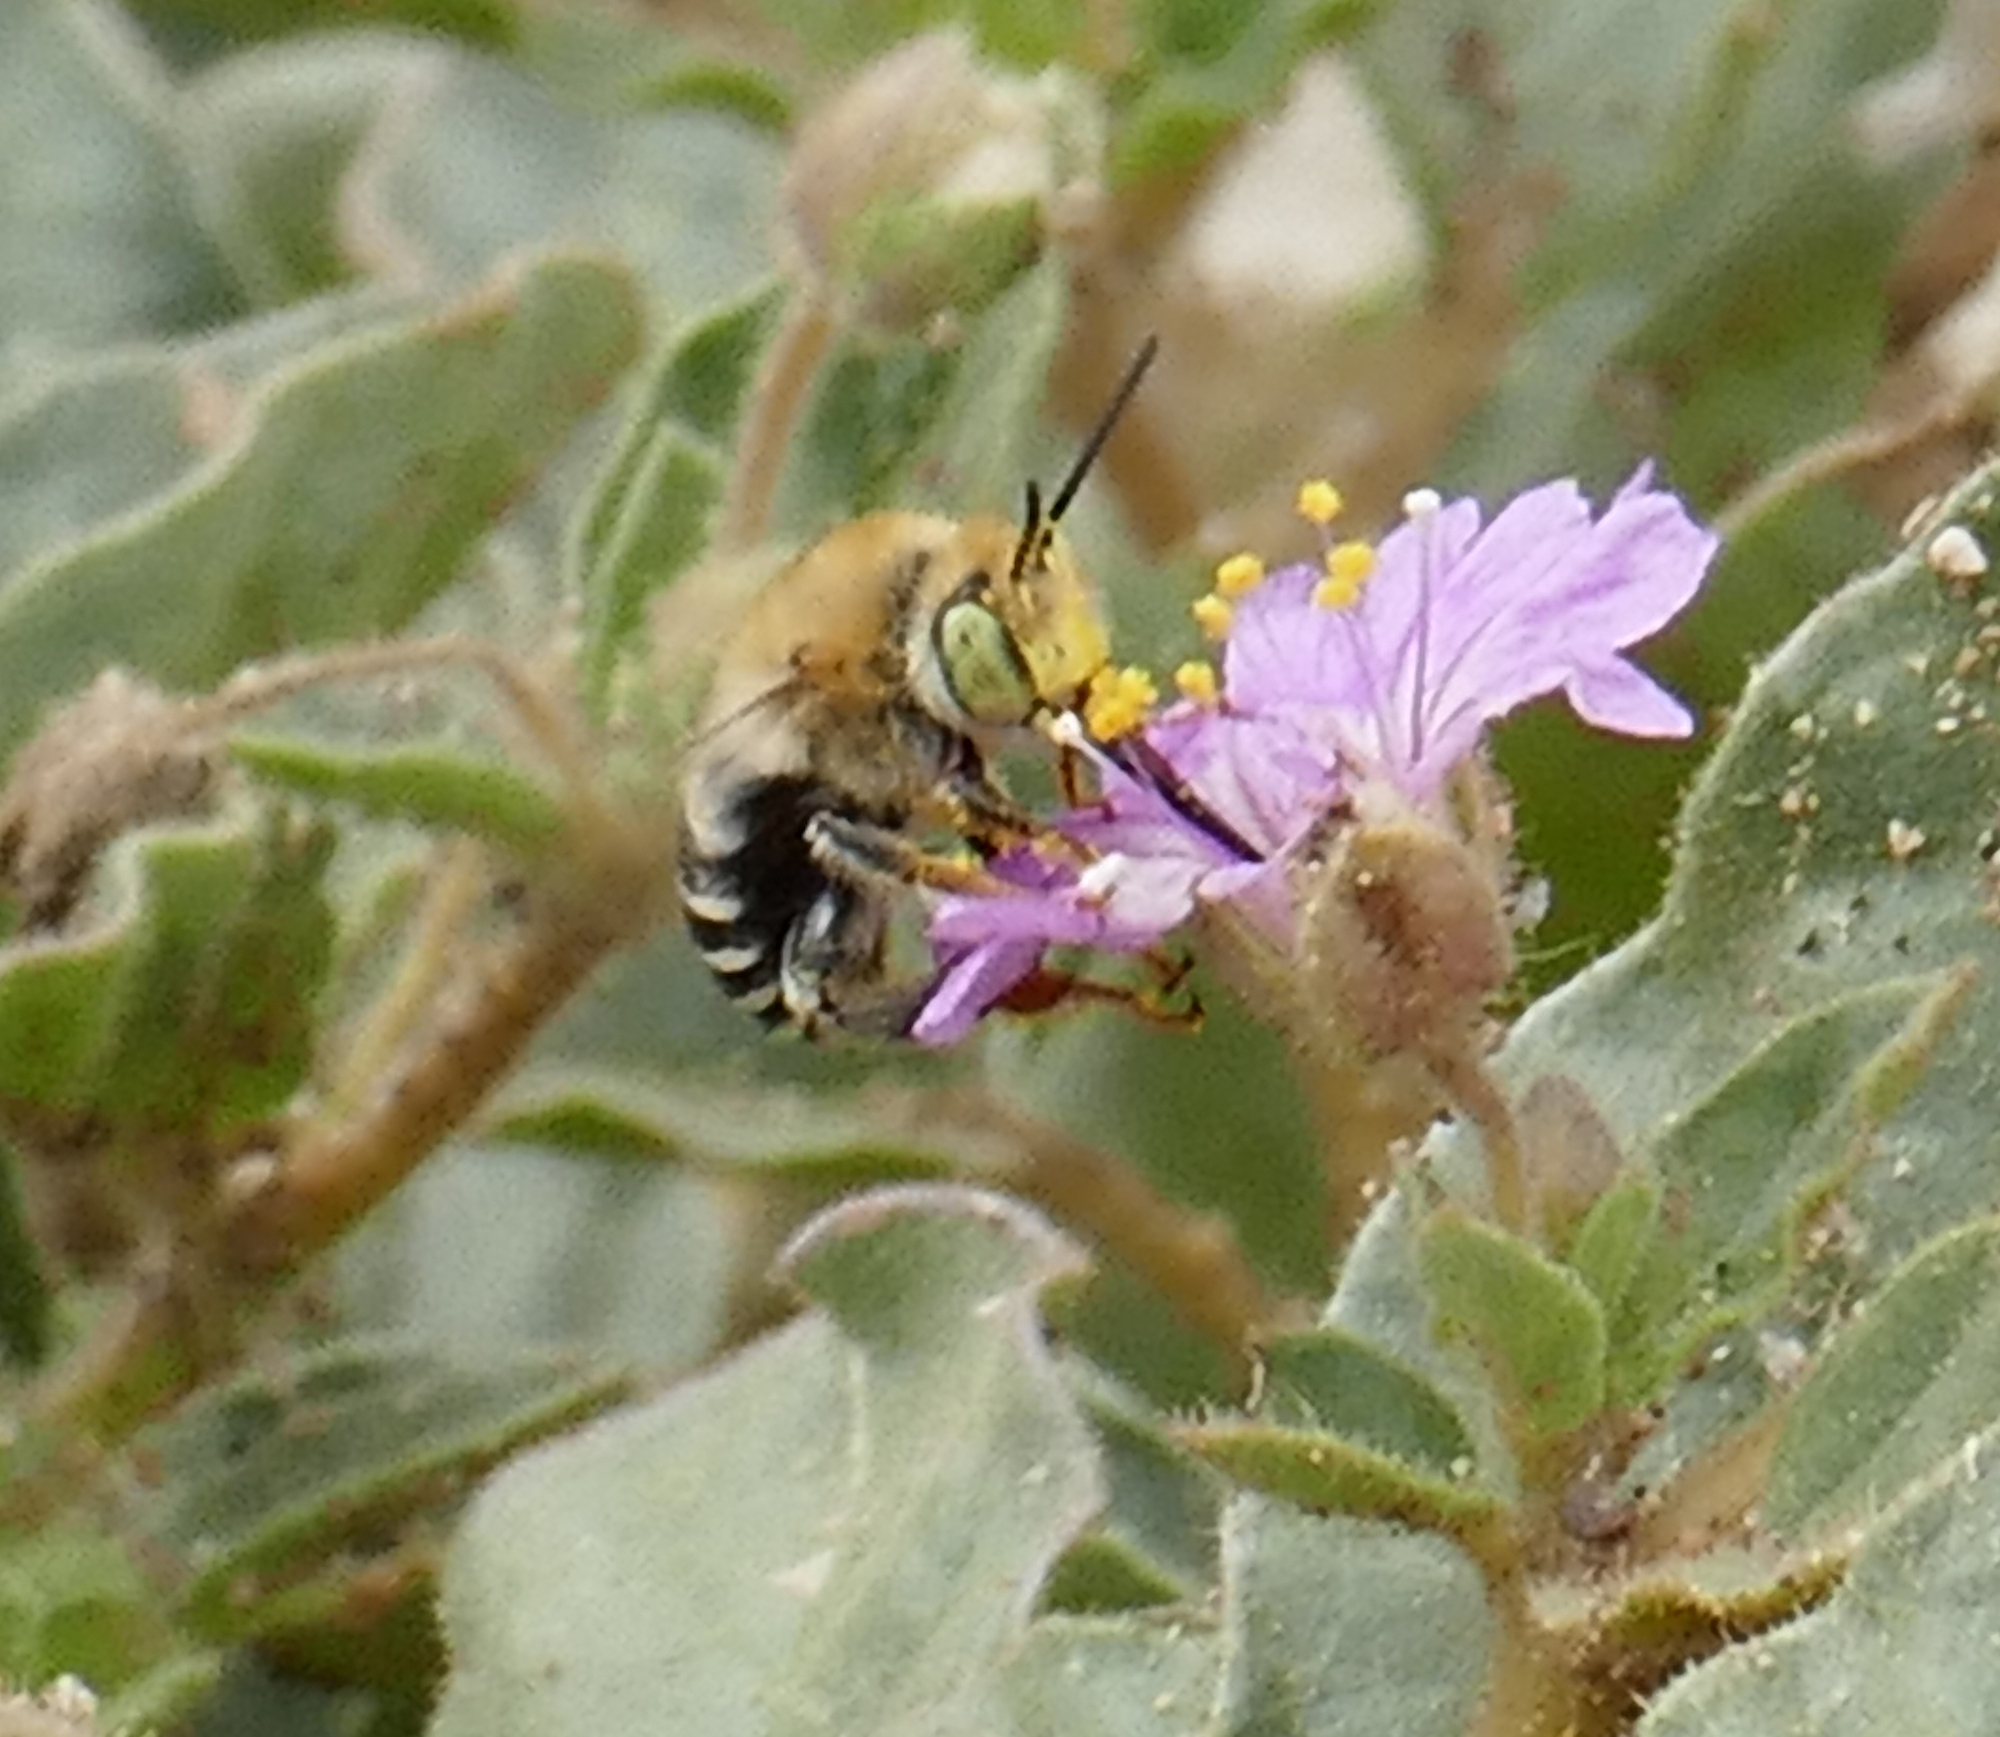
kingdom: Animalia
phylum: Arthropoda
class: Insecta
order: Hymenoptera
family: Apidae
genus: Anthophora
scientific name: Anthophora californica
